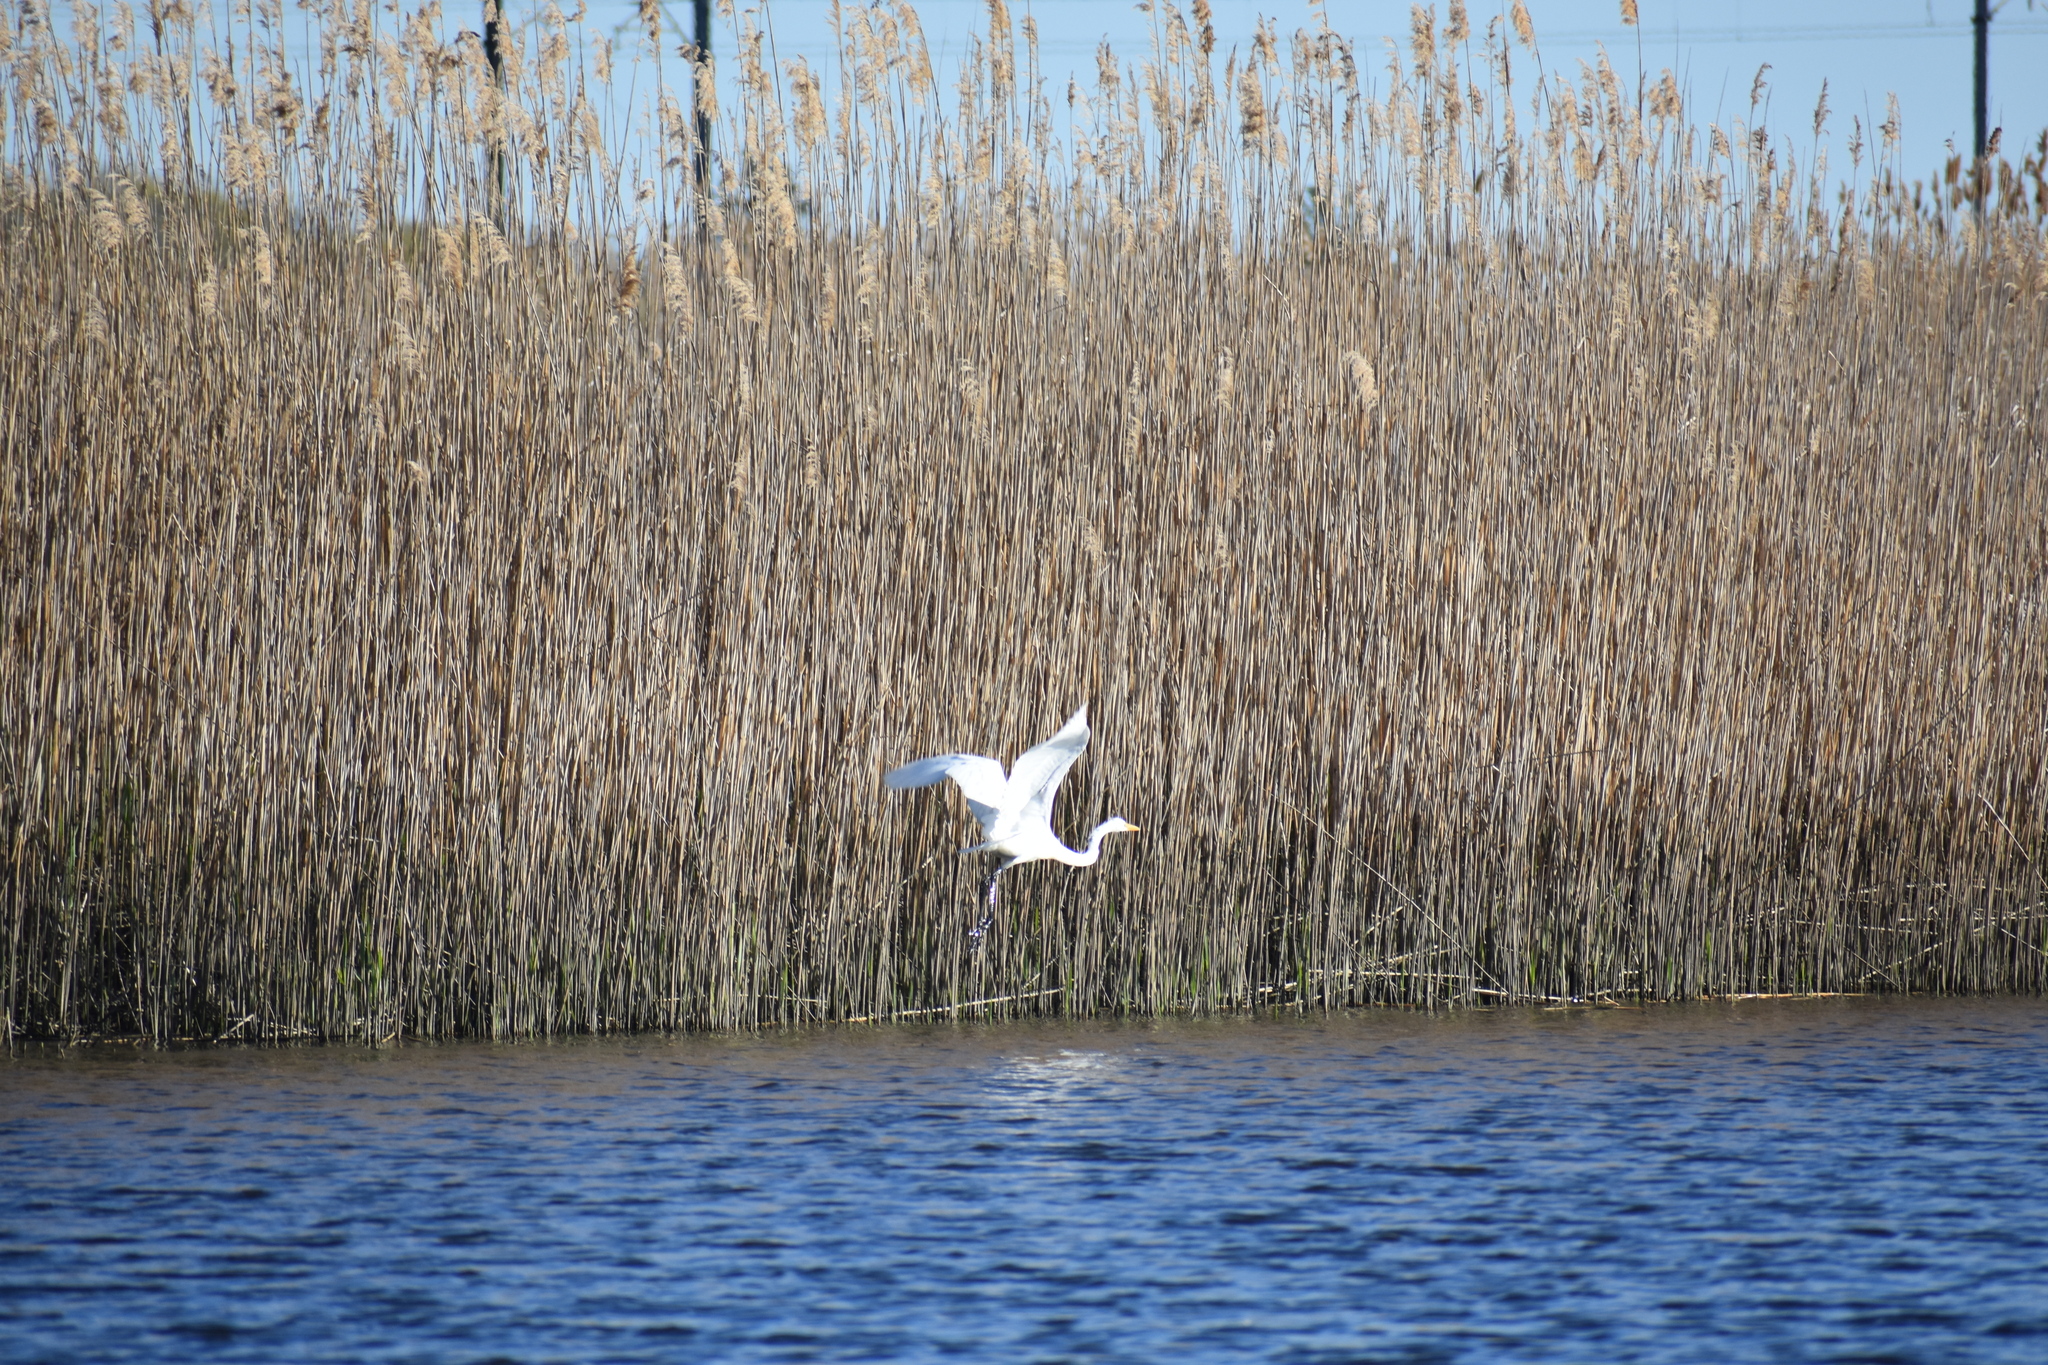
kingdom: Animalia
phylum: Chordata
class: Aves
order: Pelecaniformes
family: Ardeidae
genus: Ardea
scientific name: Ardea alba
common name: Great egret
